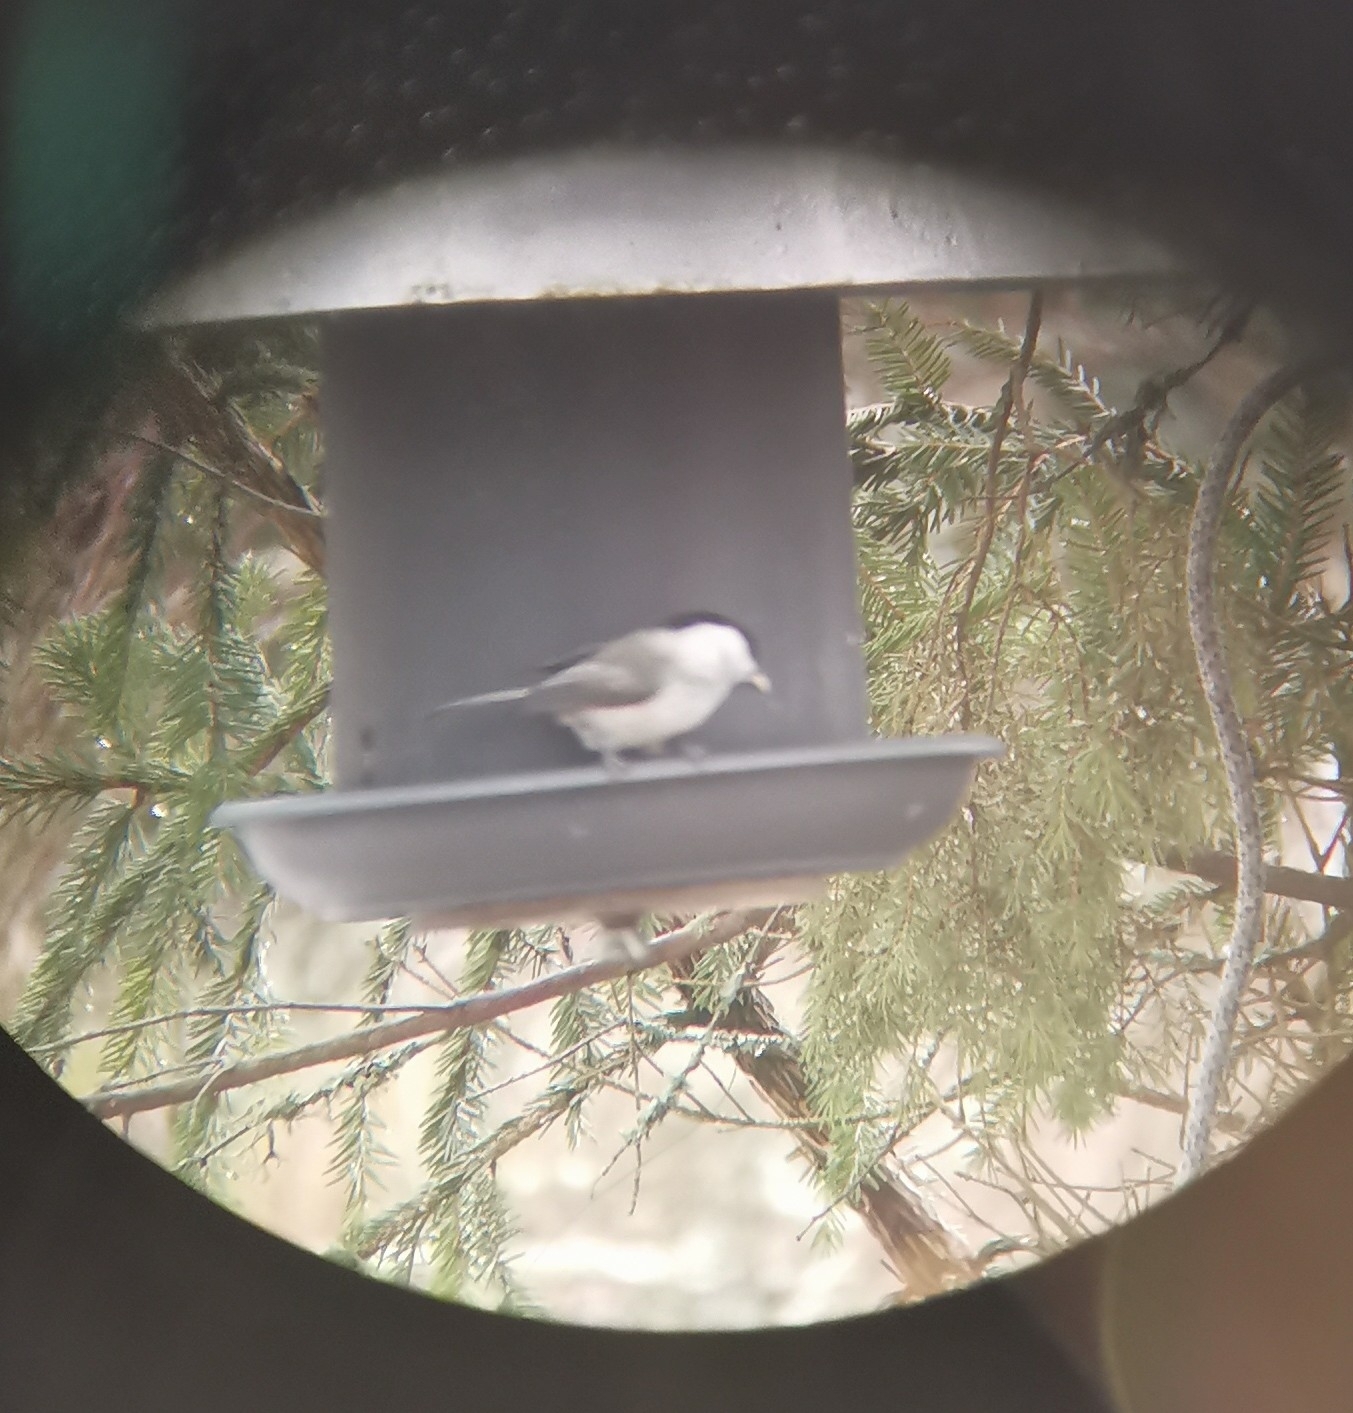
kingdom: Animalia
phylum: Chordata
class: Aves
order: Passeriformes
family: Paridae
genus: Poecile
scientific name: Poecile montanus
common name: Willow tit
